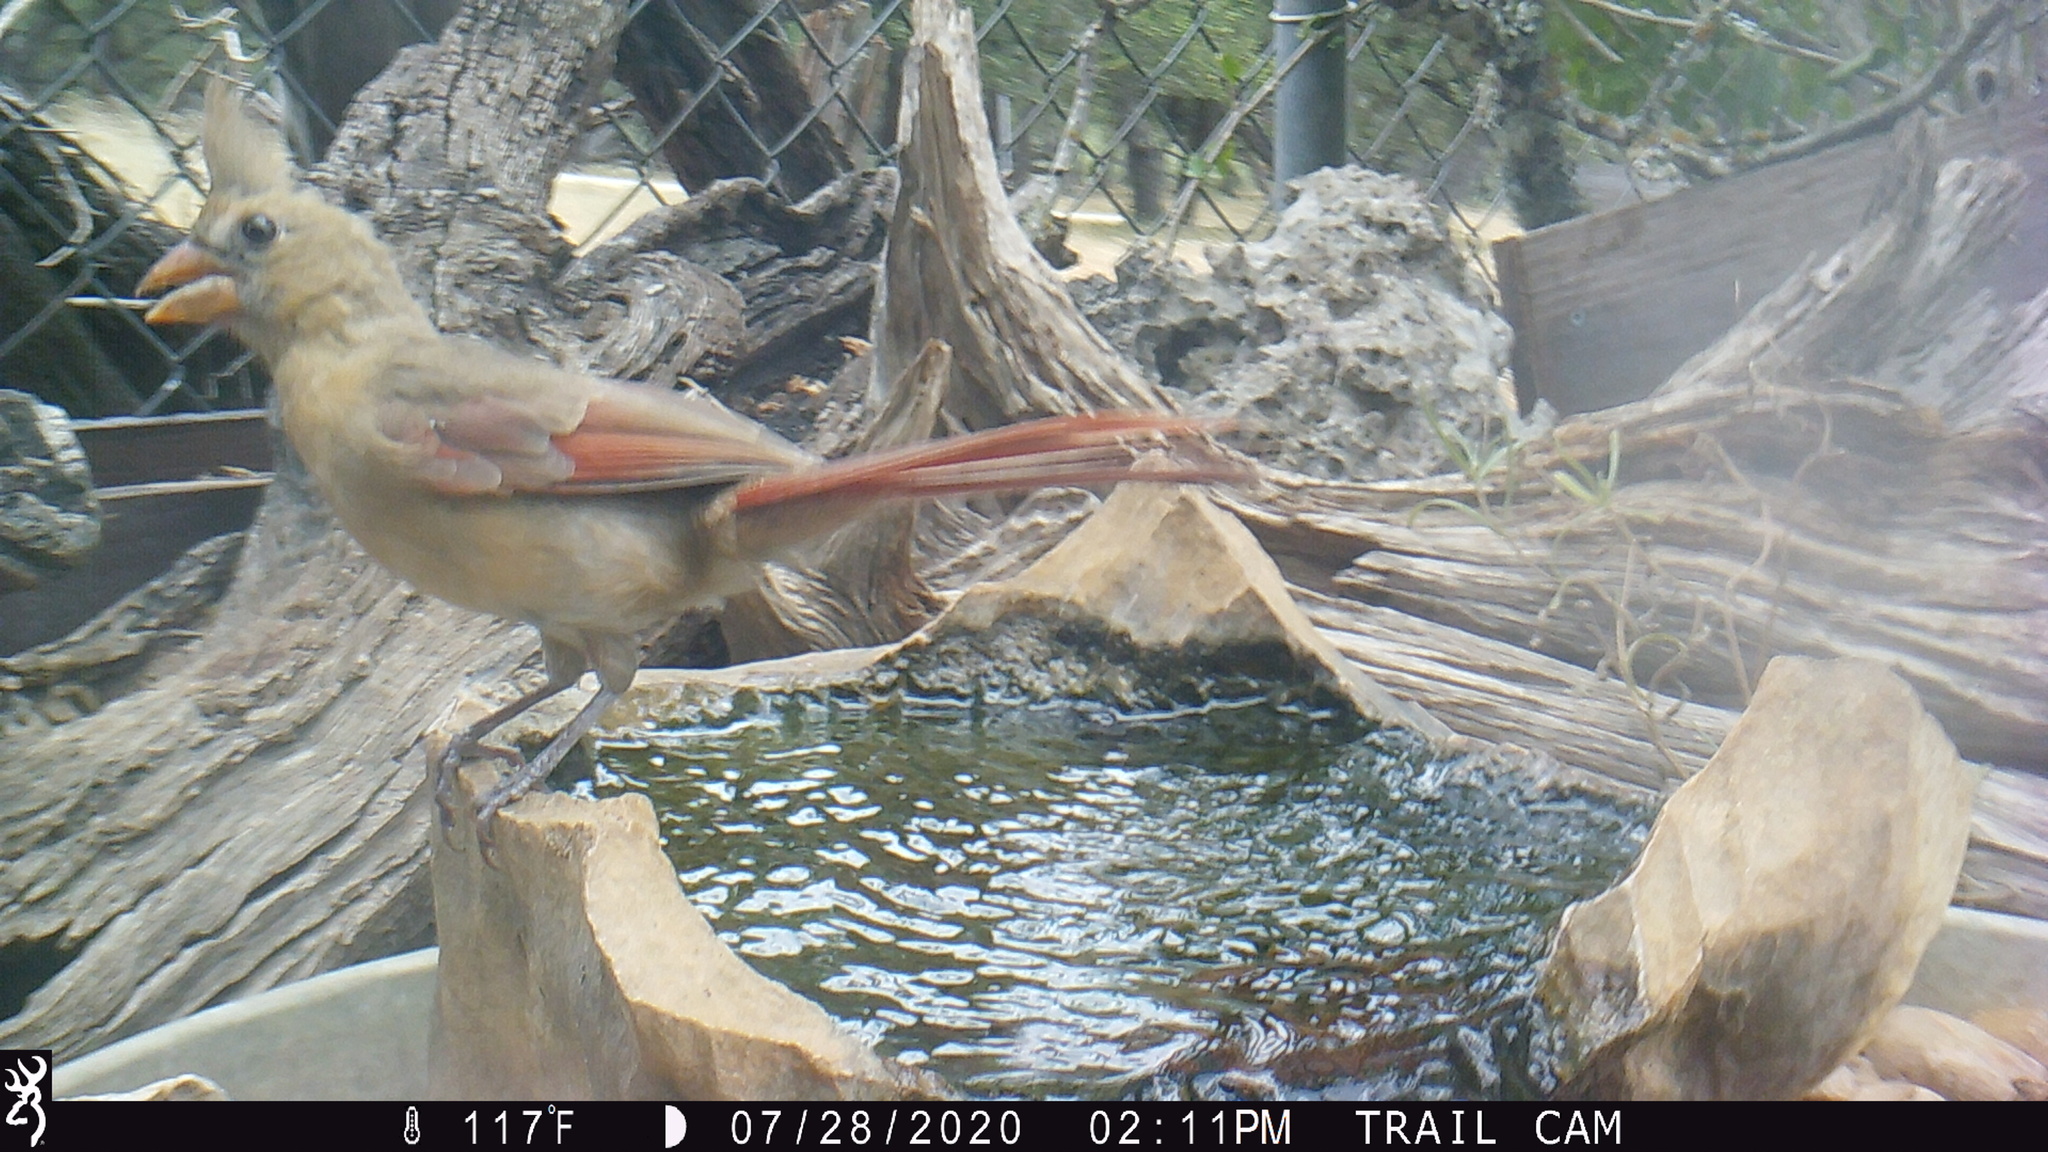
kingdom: Animalia
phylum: Chordata
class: Aves
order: Passeriformes
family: Cardinalidae
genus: Cardinalis
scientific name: Cardinalis cardinalis
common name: Northern cardinal
